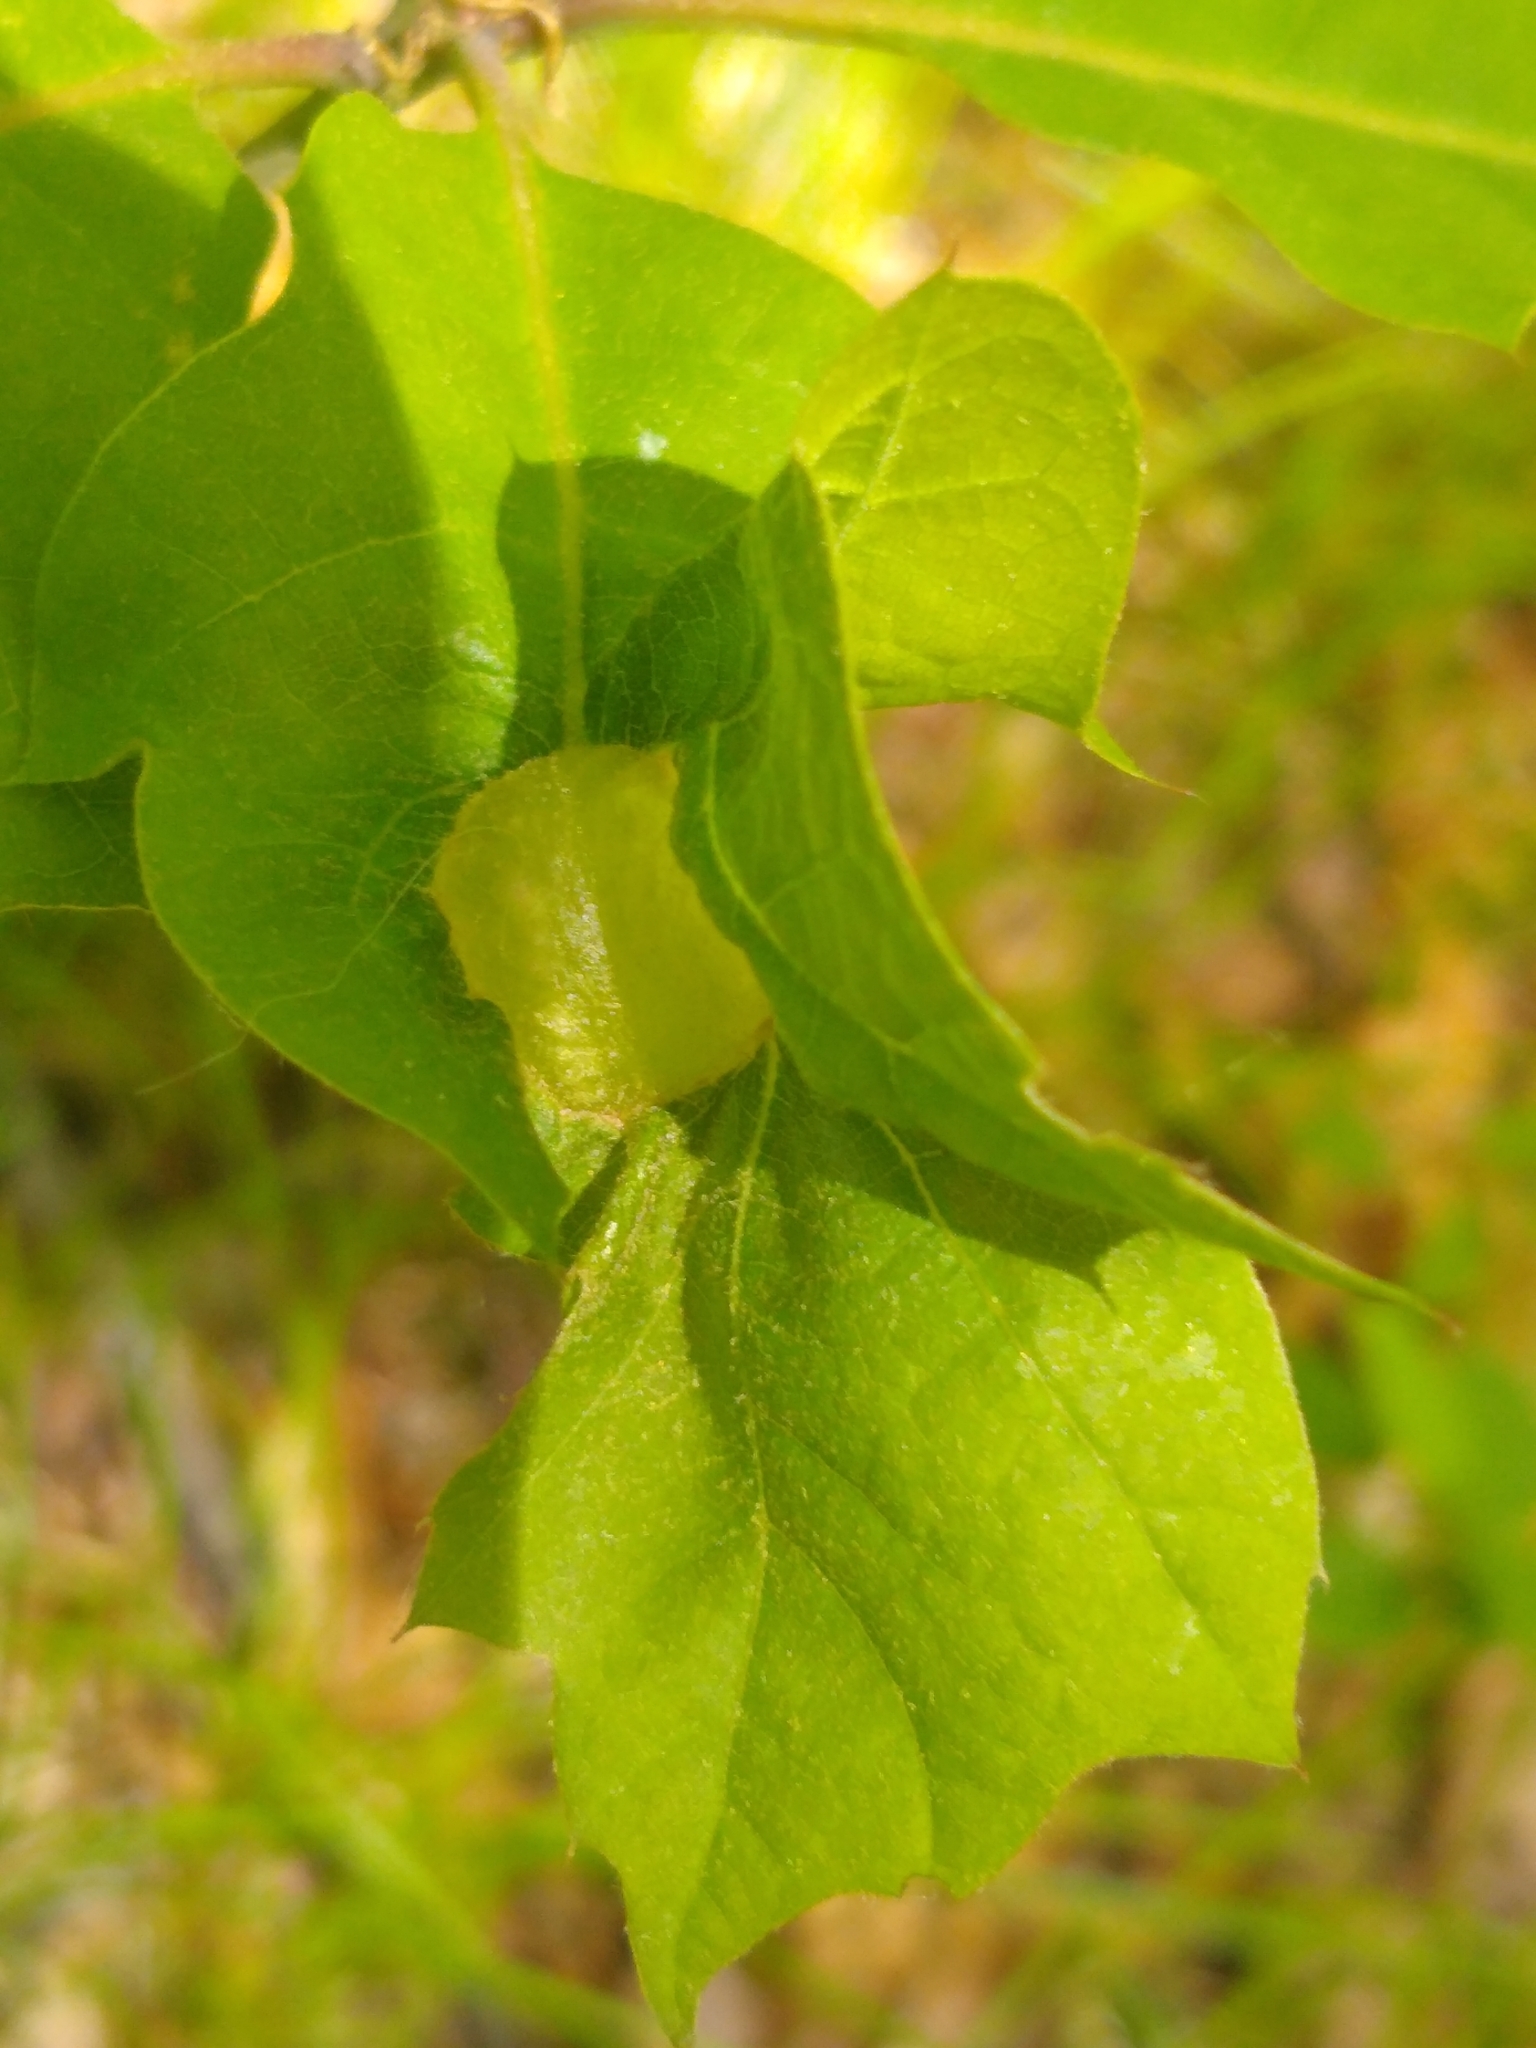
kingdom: Animalia
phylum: Arthropoda
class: Insecta
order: Hymenoptera
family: Cynipidae
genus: Dryocosmus
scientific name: Dryocosmus quercuspalustris
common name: Succulent oak gall wasp
